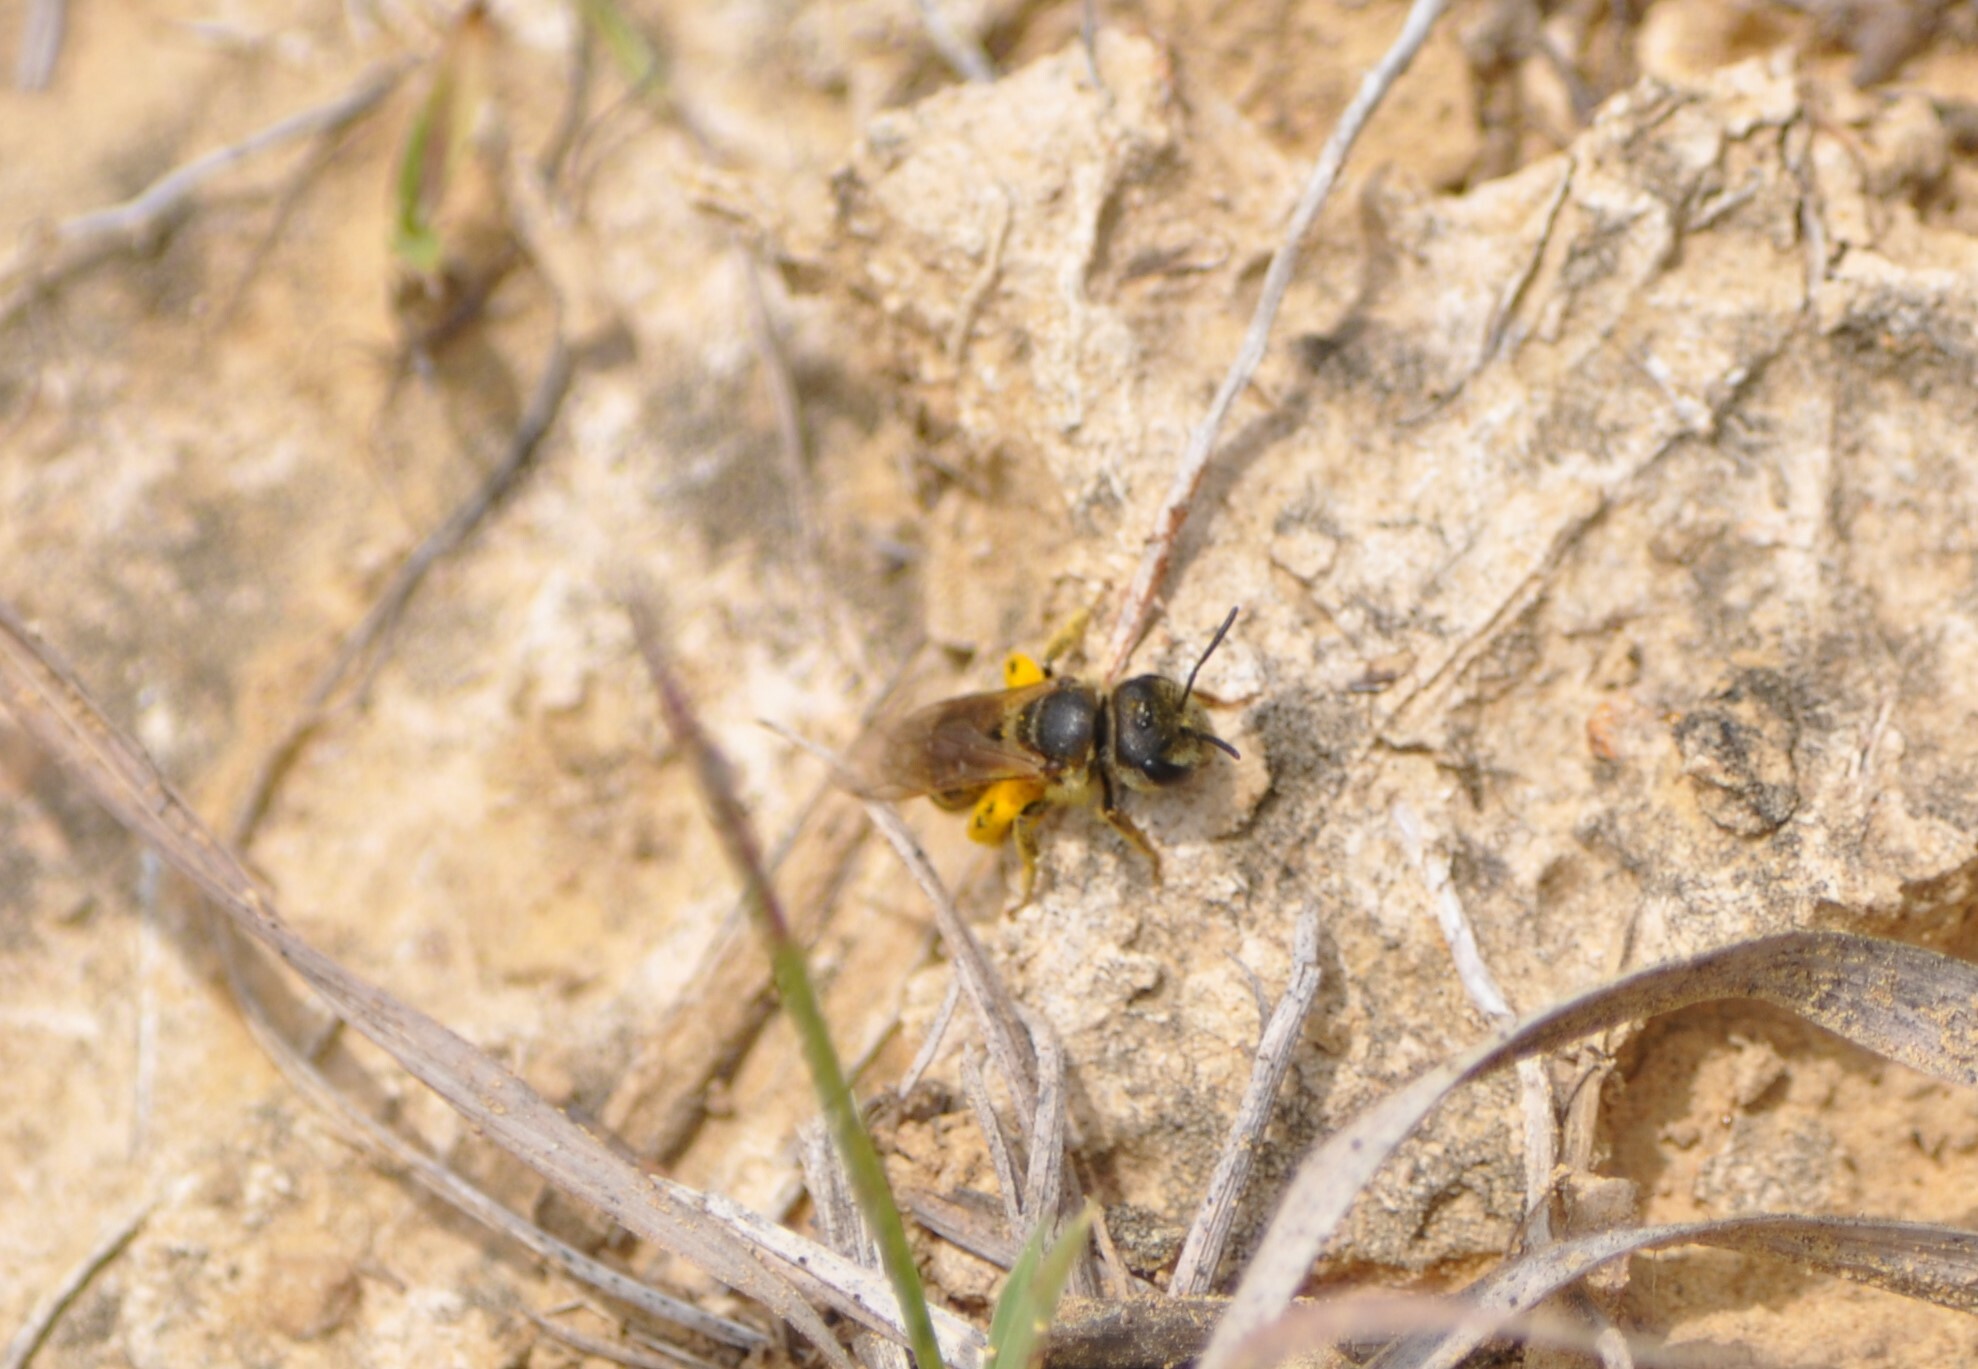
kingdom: Animalia
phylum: Arthropoda
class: Insecta
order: Hymenoptera
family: Halictidae
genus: Halictus
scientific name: Halictus ligatus
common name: Ligated furrow bee
